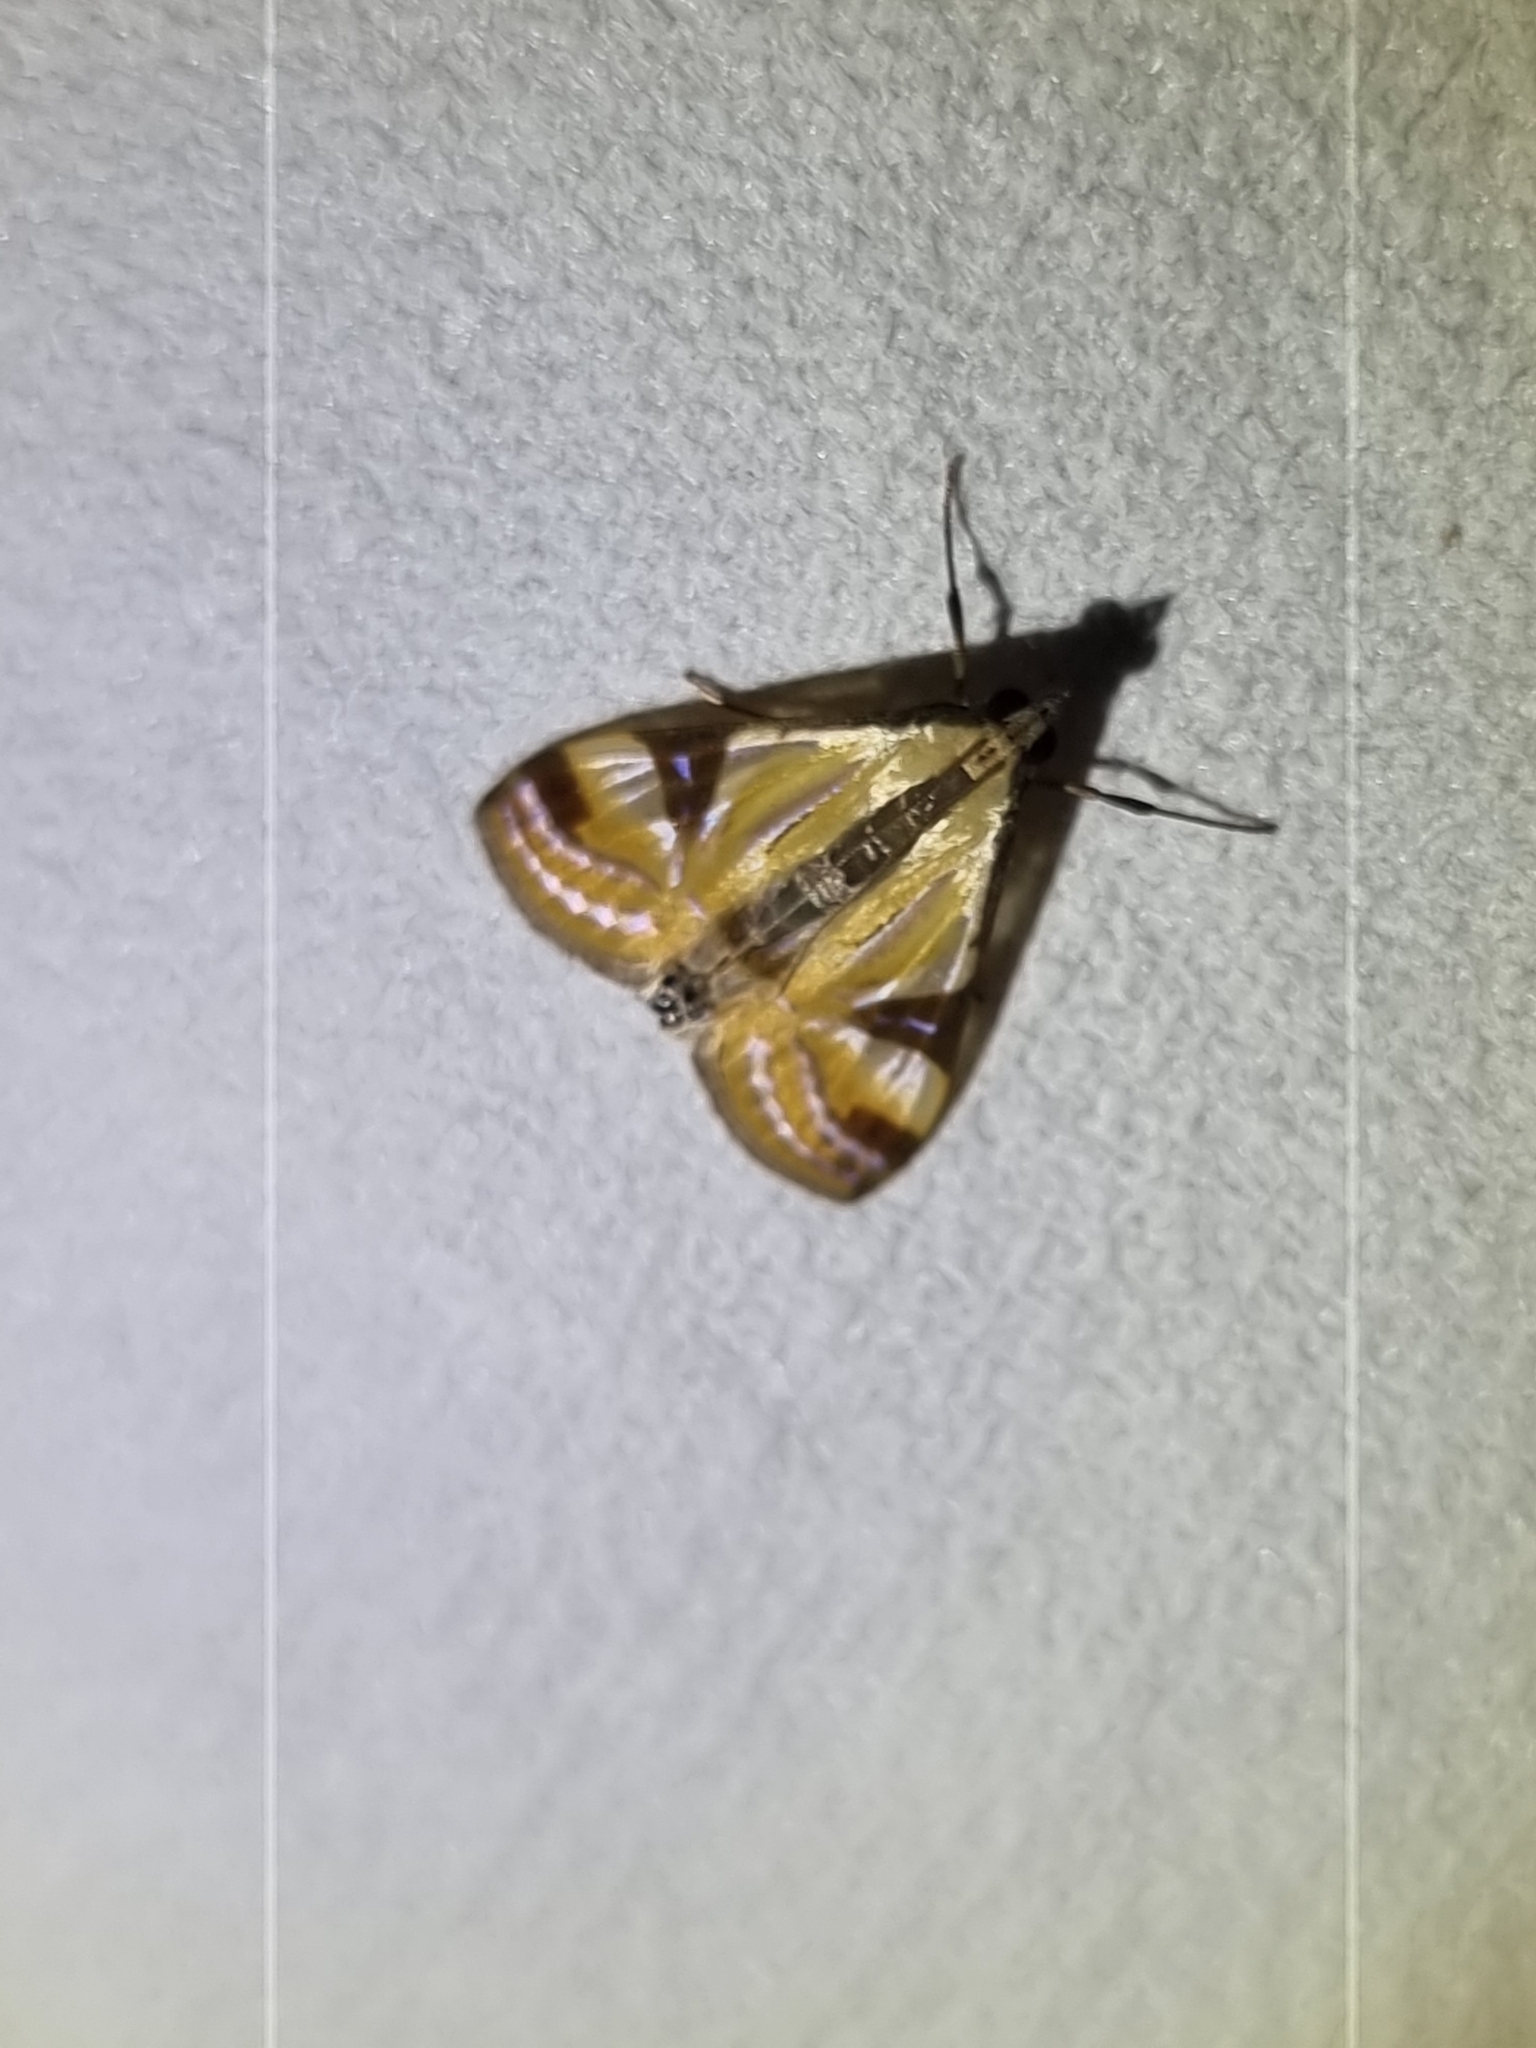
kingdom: Animalia
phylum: Arthropoda
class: Insecta
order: Lepidoptera
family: Crambidae
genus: Talanga
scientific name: Talanga tolumnialis
